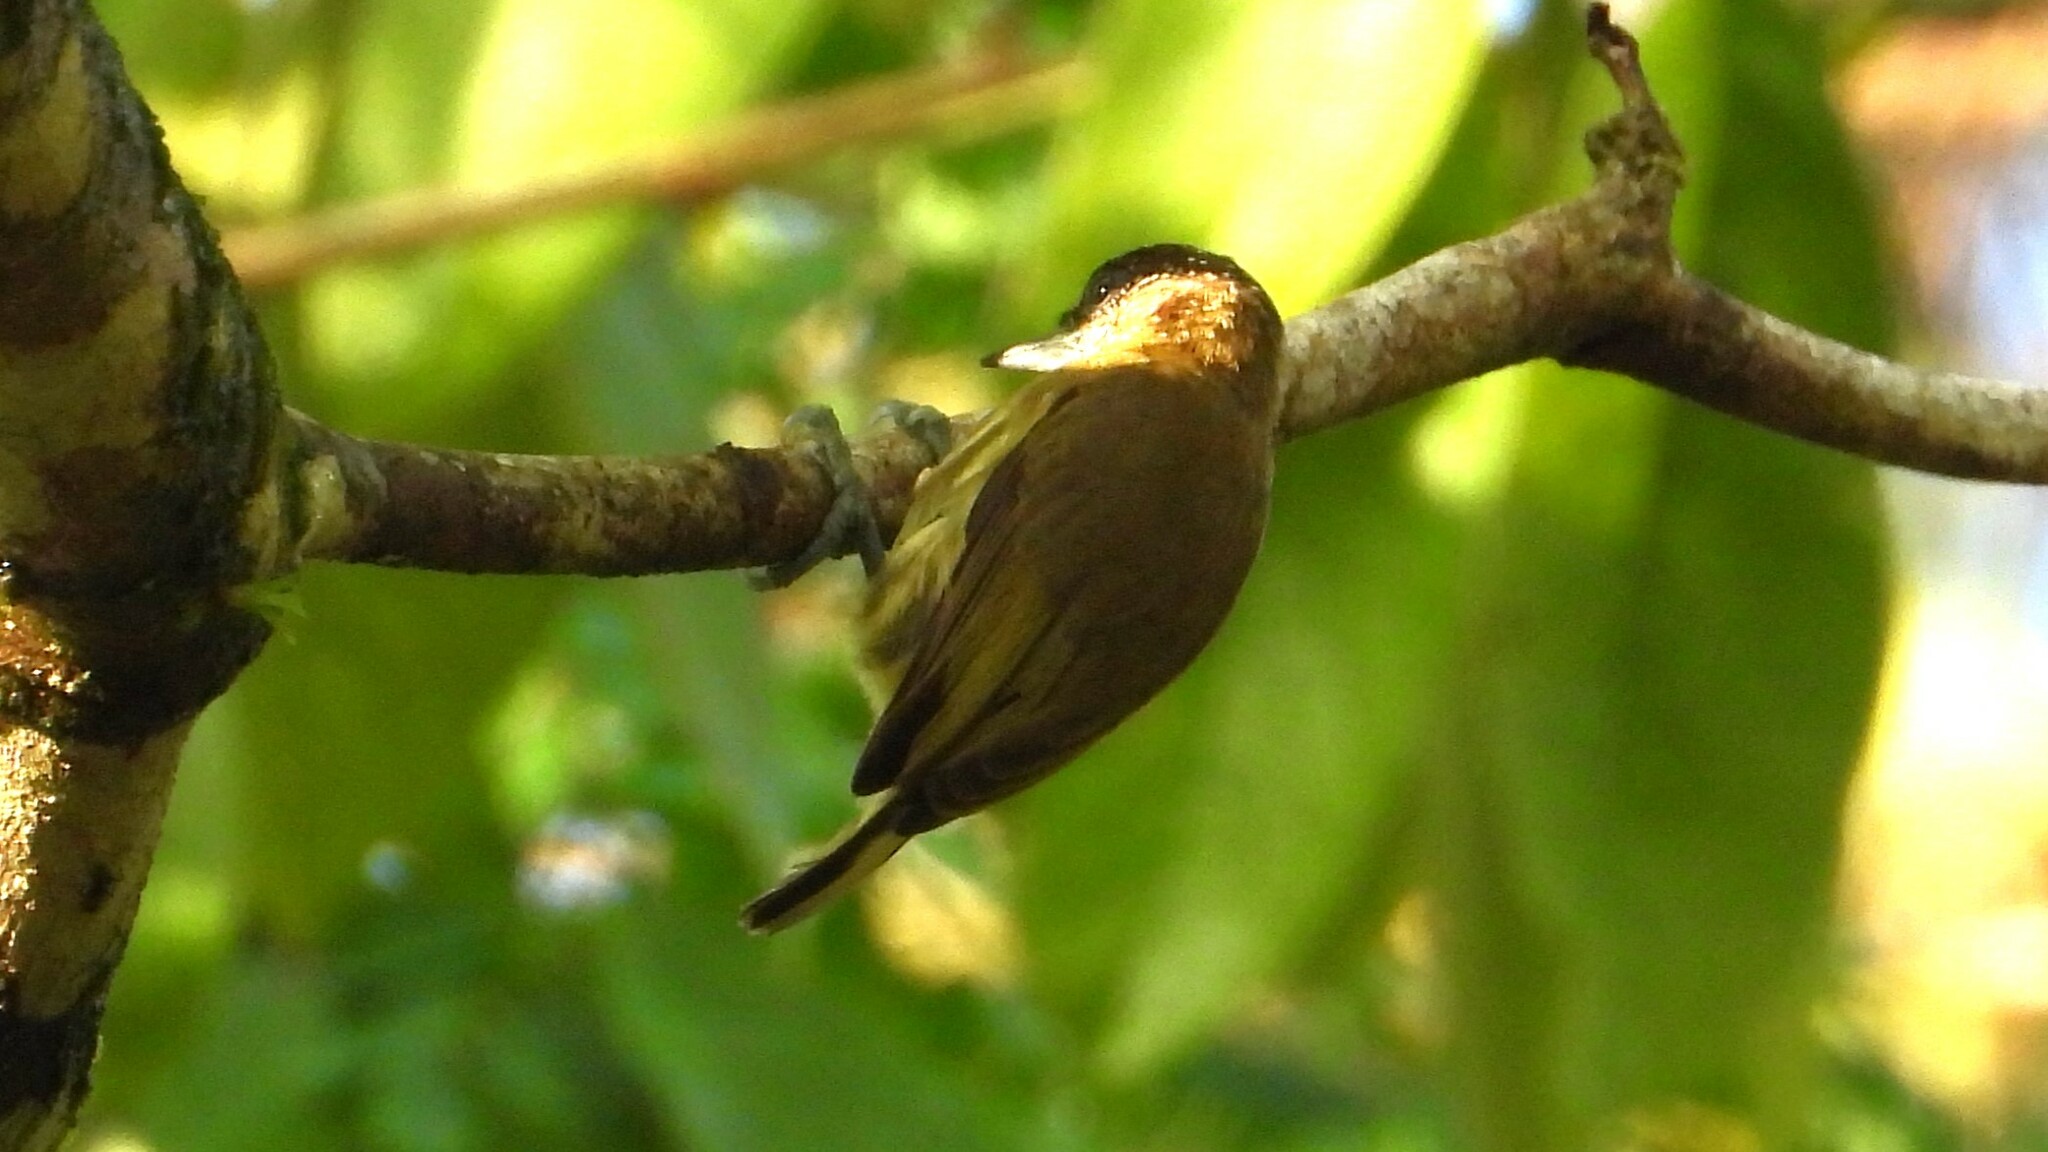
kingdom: Animalia
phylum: Chordata
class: Aves
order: Piciformes
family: Picidae
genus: Picumnus
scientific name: Picumnus olivaceus
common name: Olivaceous piculet
